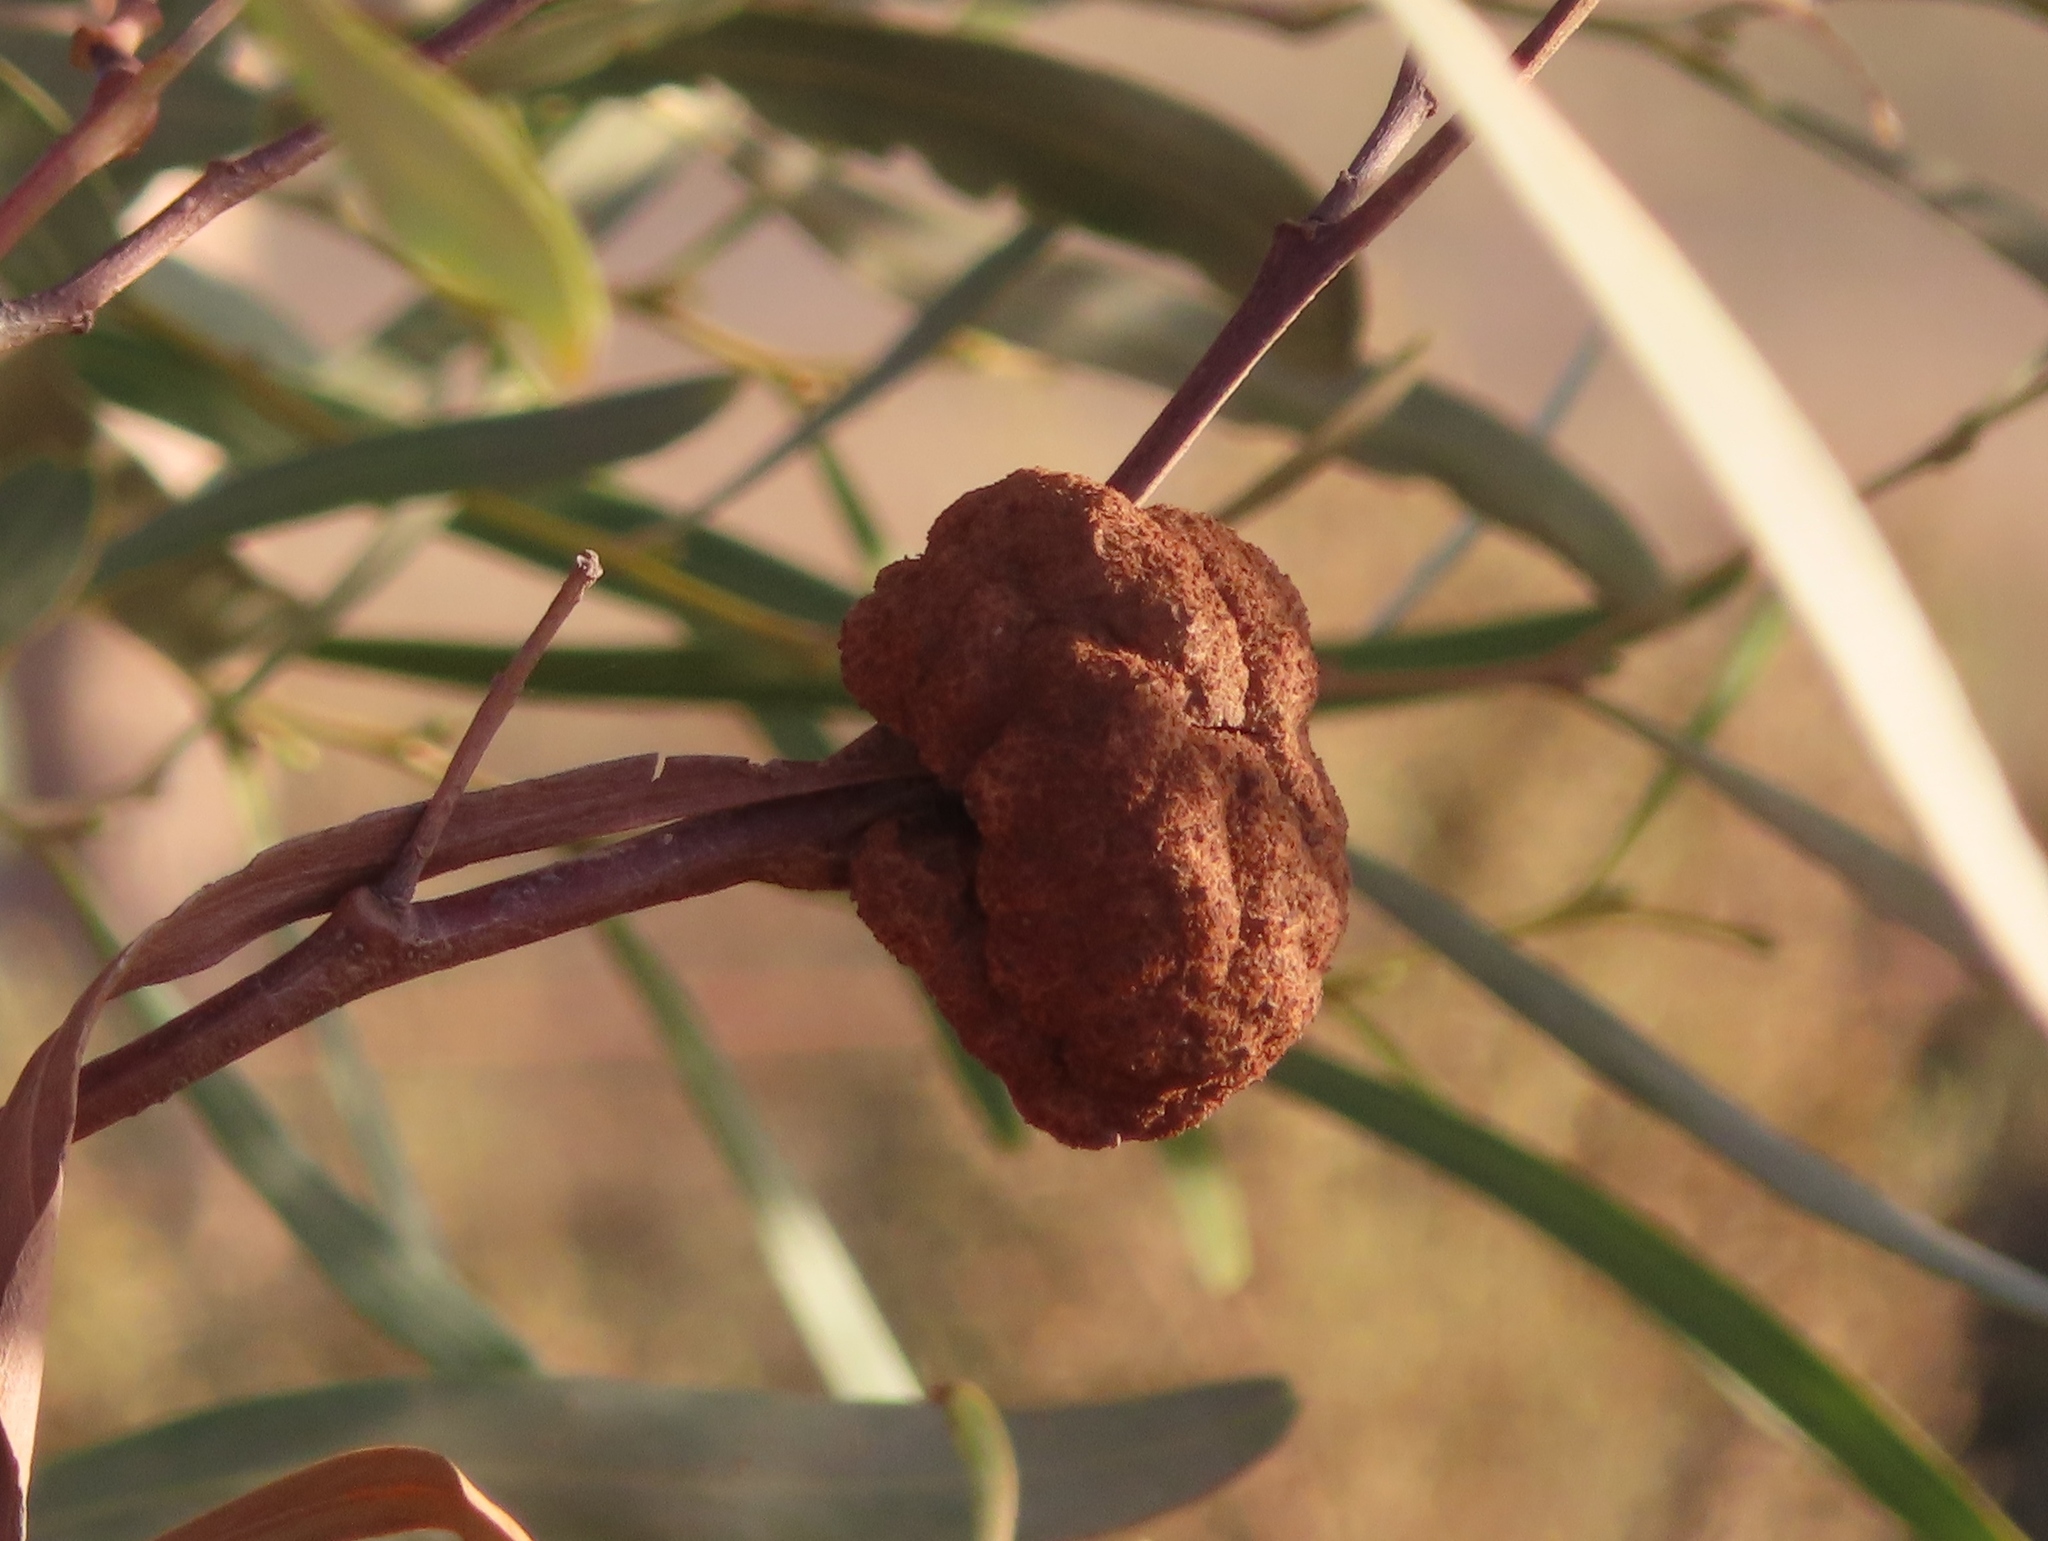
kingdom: Fungi
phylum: Basidiomycota
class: Pucciniomycetes
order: Pucciniales
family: Uromycladiaceae
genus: Uromycladium
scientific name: Uromycladium morrisii
